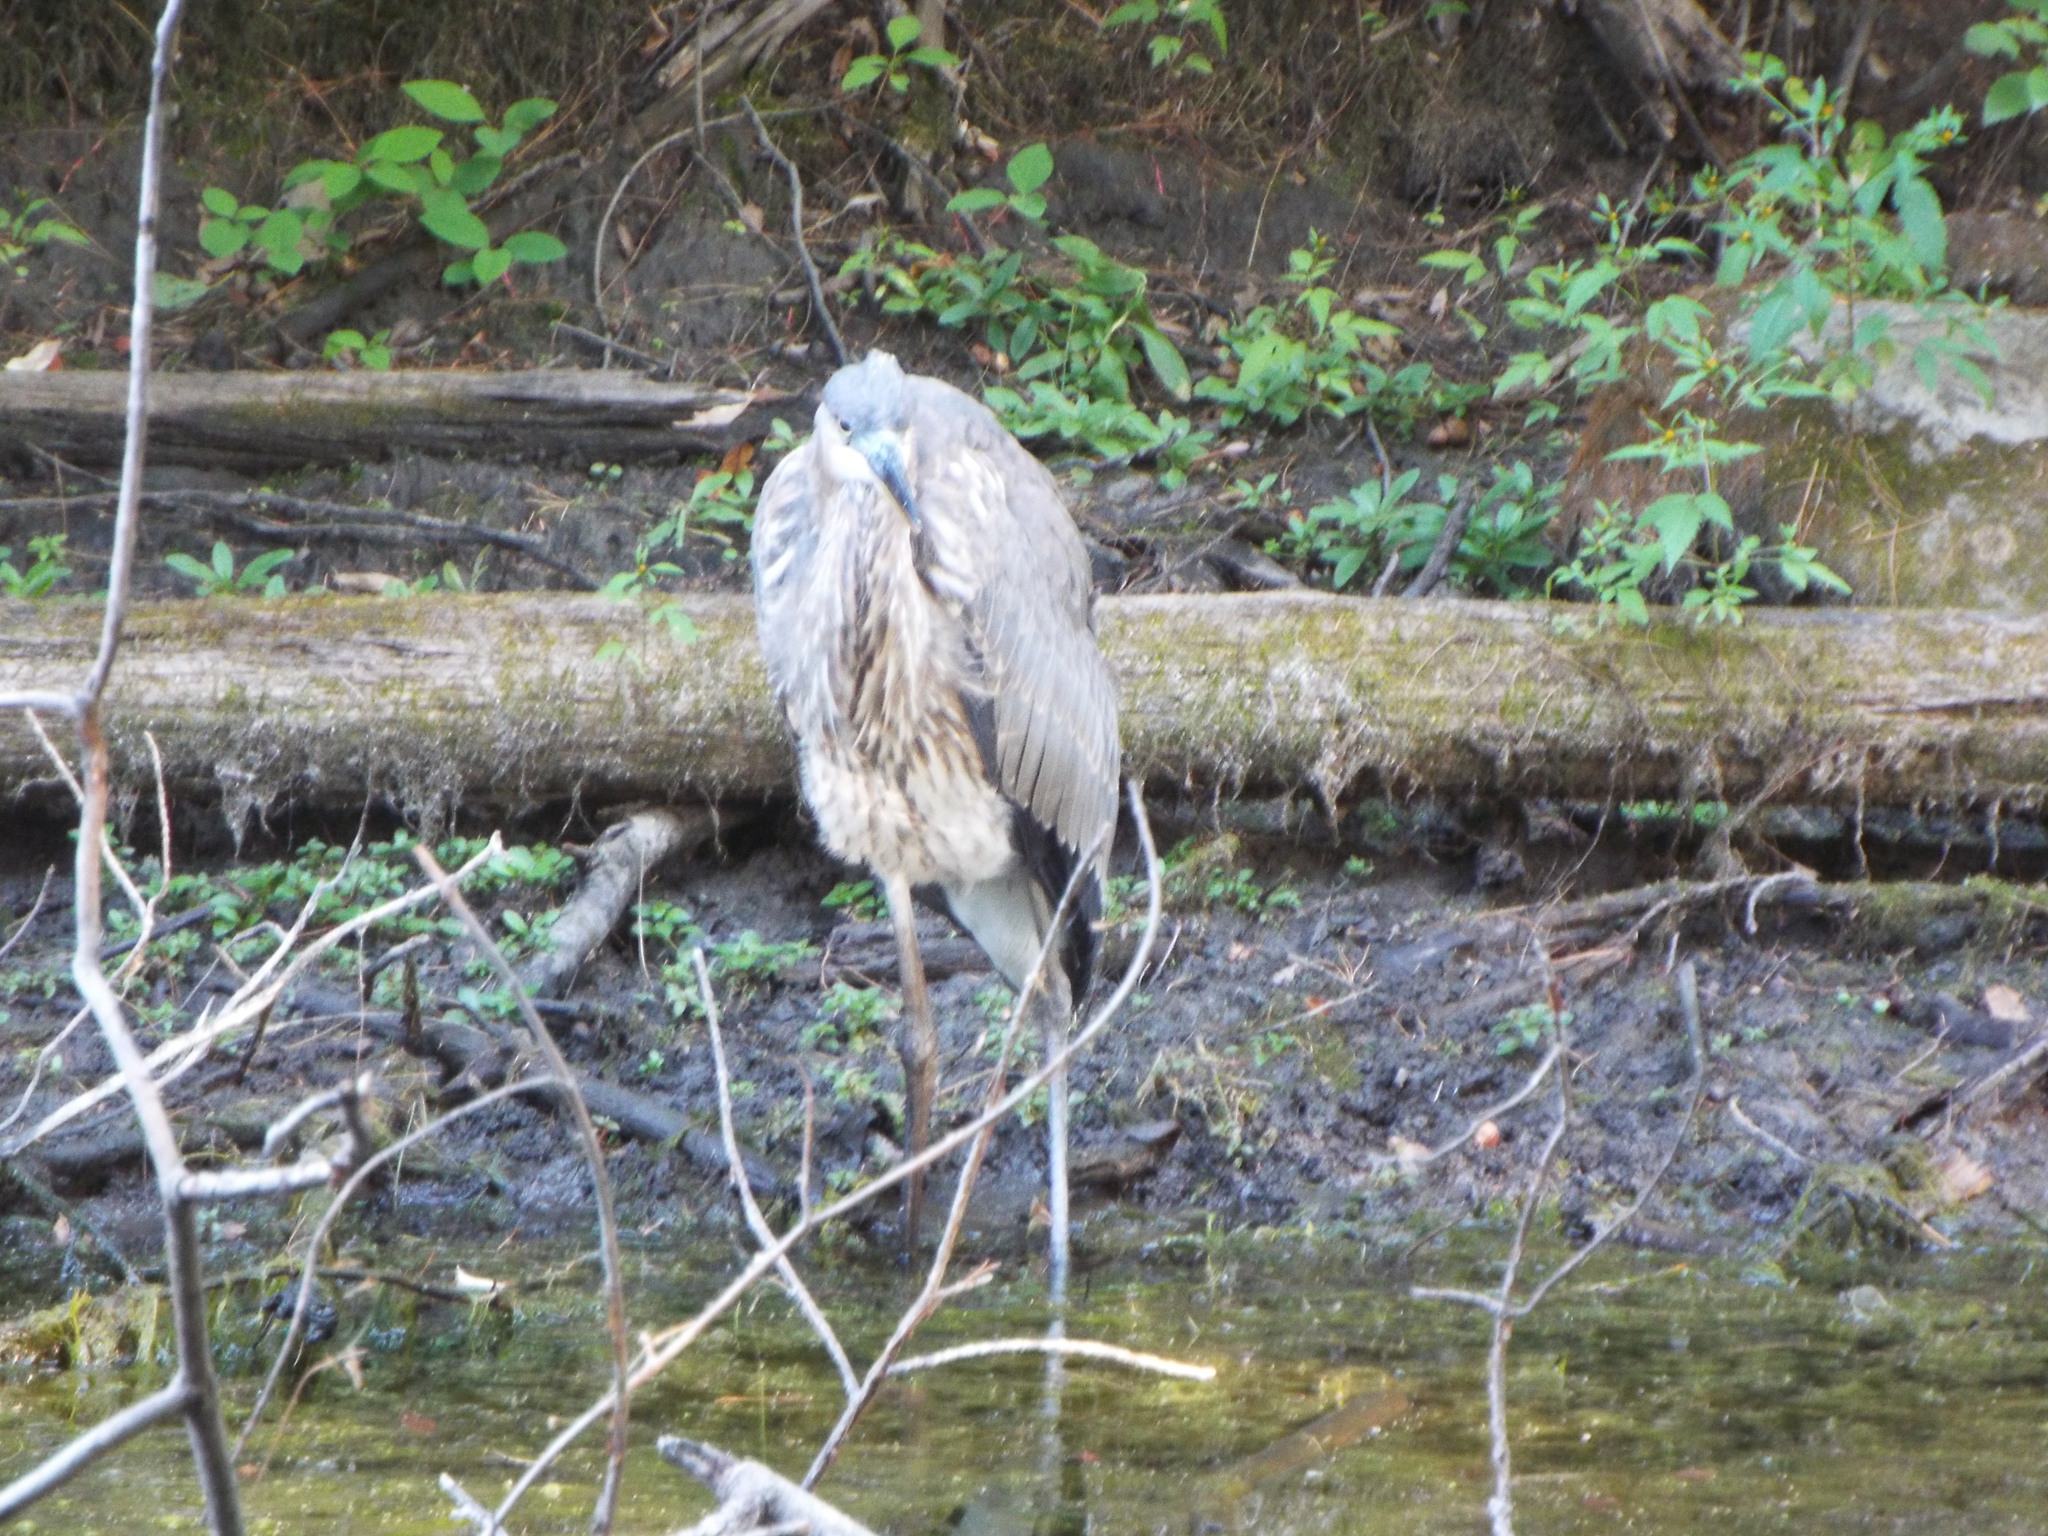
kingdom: Animalia
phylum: Chordata
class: Aves
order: Pelecaniformes
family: Ardeidae
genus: Ardea
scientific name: Ardea herodias
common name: Great blue heron
